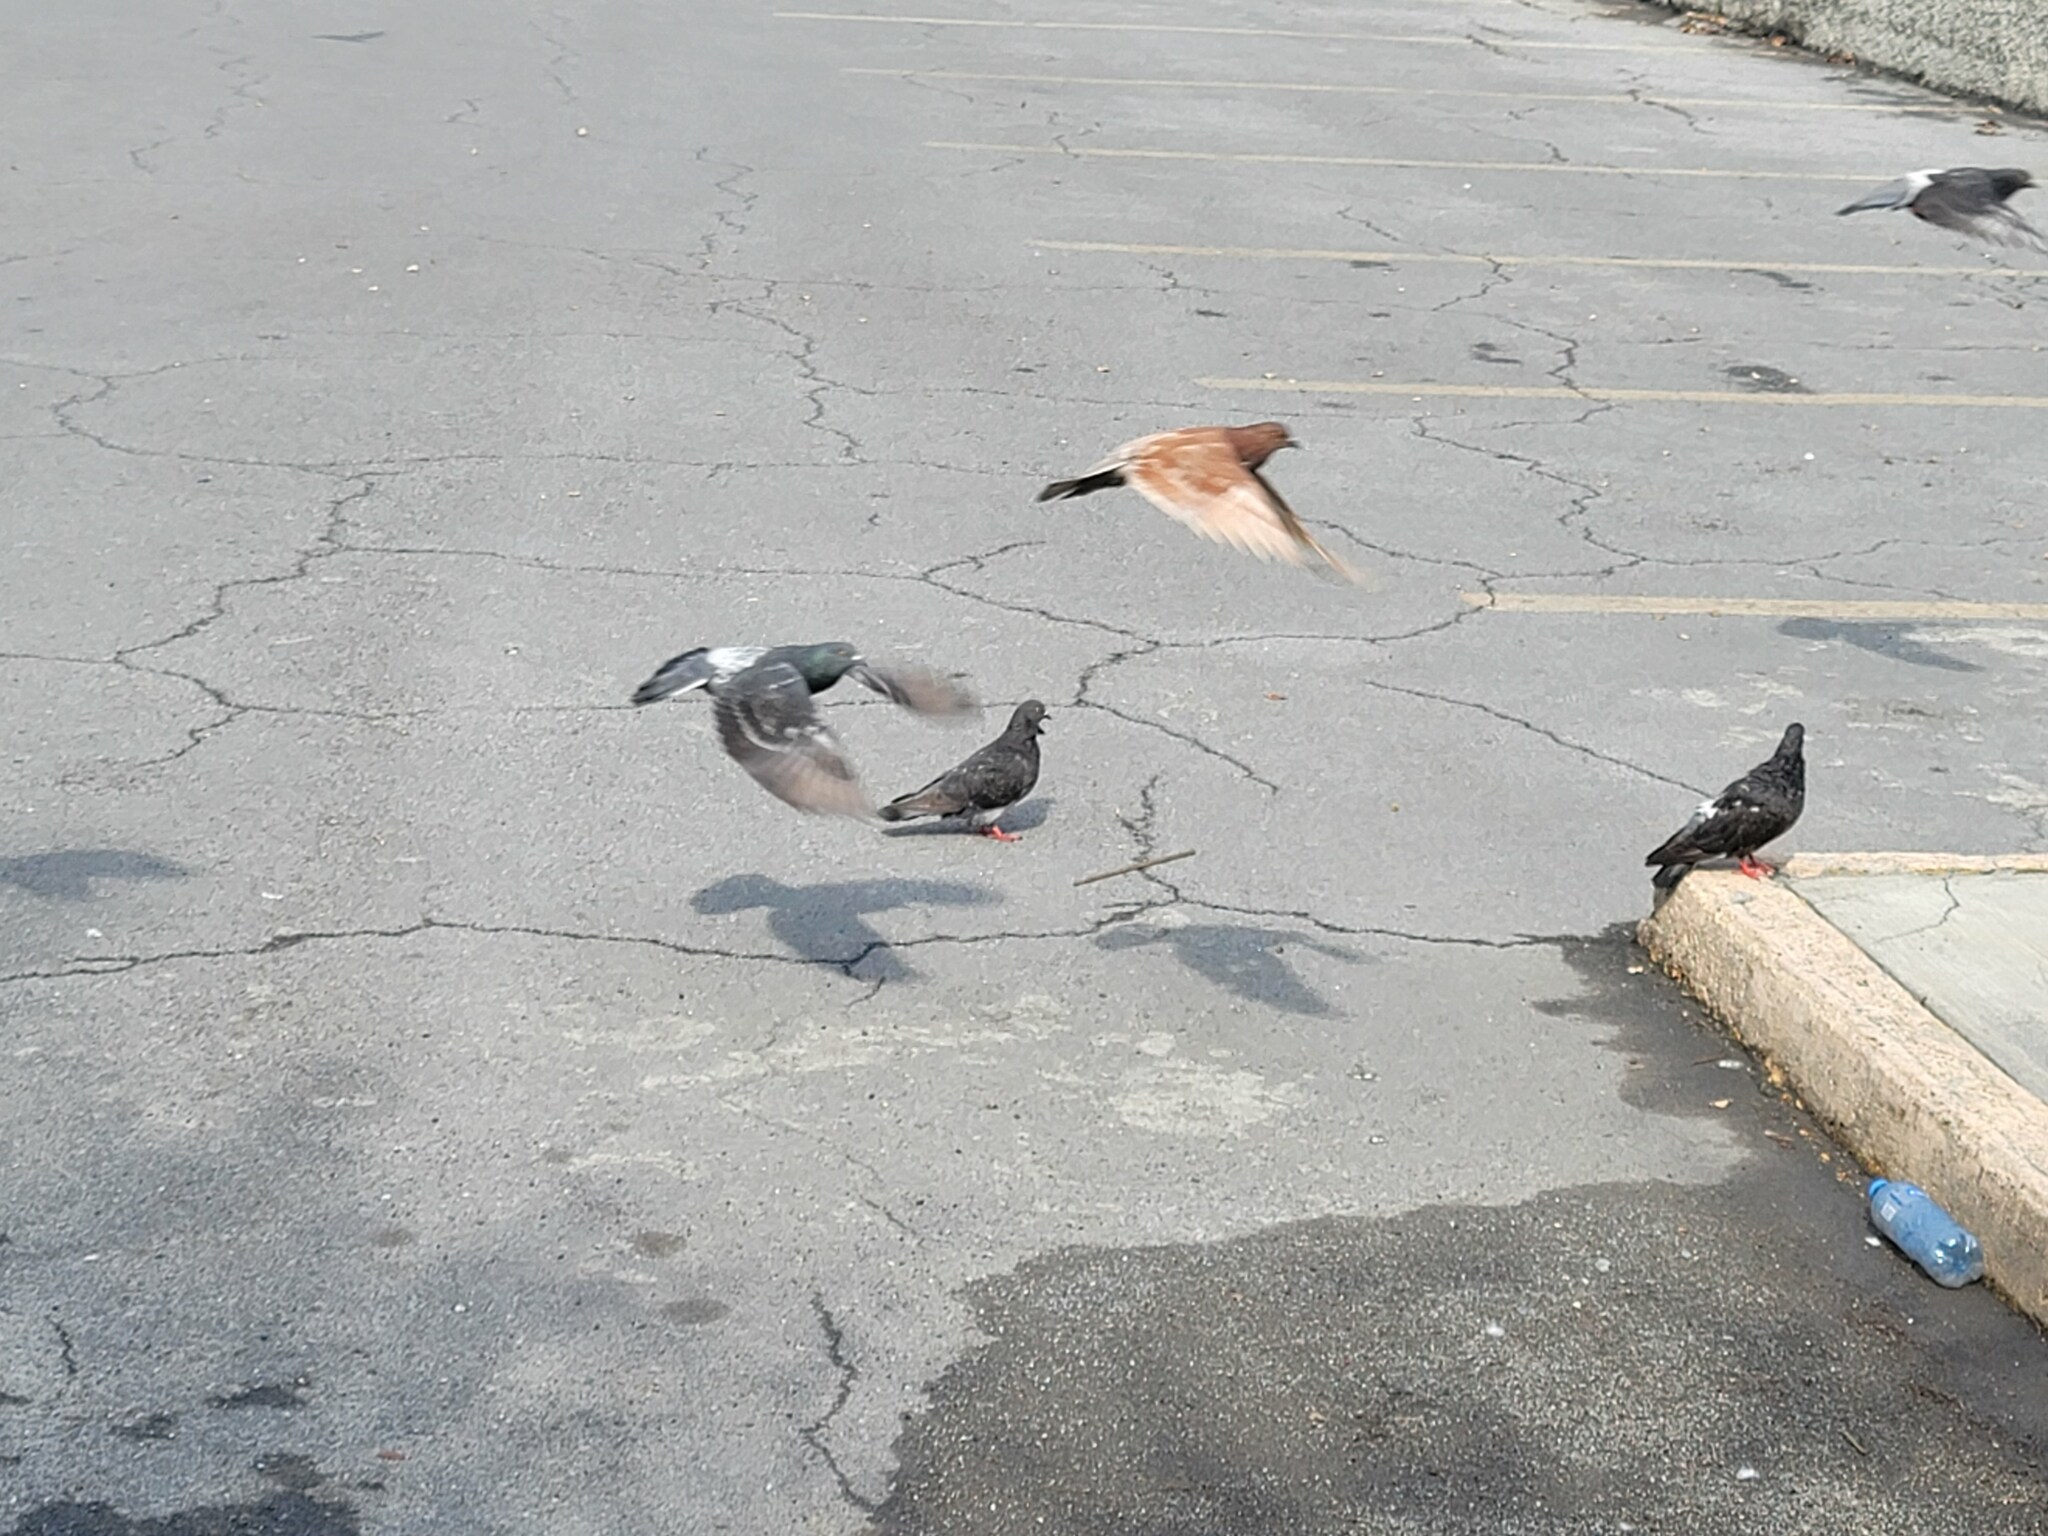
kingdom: Animalia
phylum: Chordata
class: Aves
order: Columbiformes
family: Columbidae
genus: Columba
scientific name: Columba livia
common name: Rock pigeon
